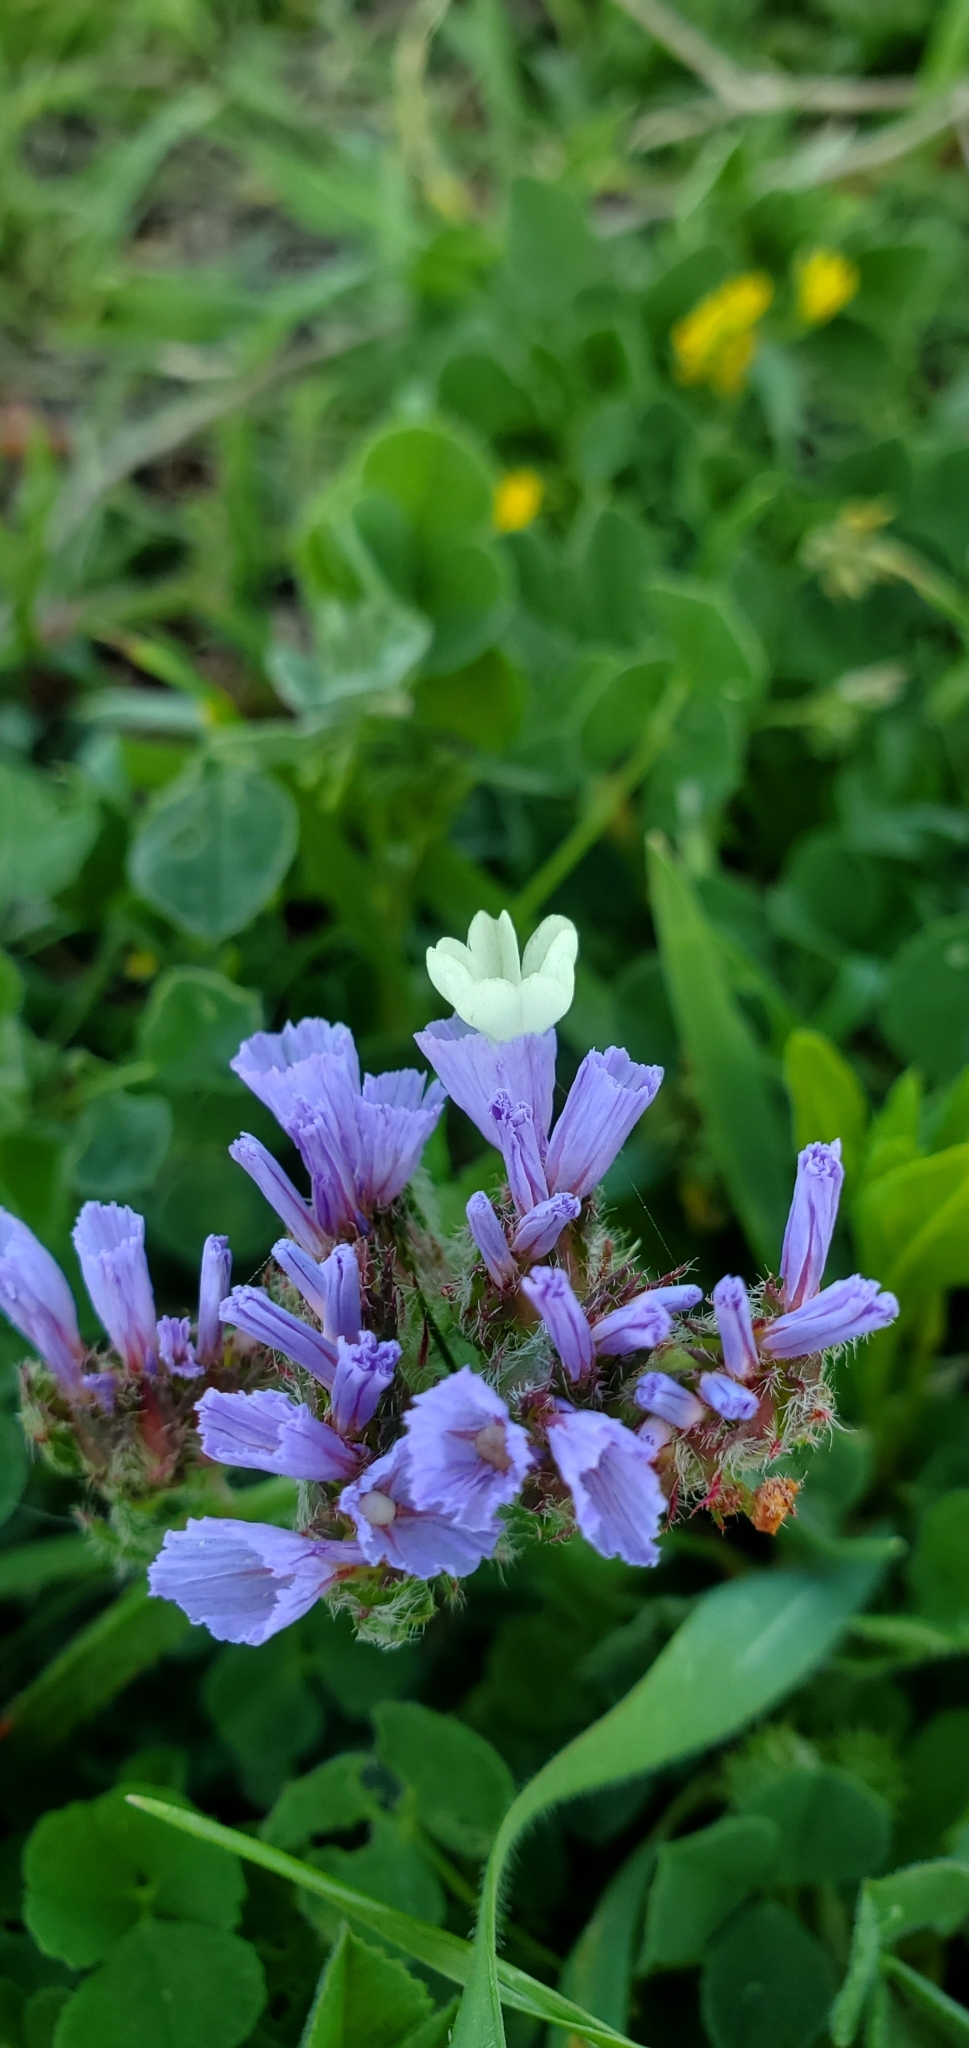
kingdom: Plantae
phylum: Tracheophyta
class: Magnoliopsida
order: Caryophyllales
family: Plumbaginaceae
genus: Limonium
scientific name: Limonium sinuatum
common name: Statice
